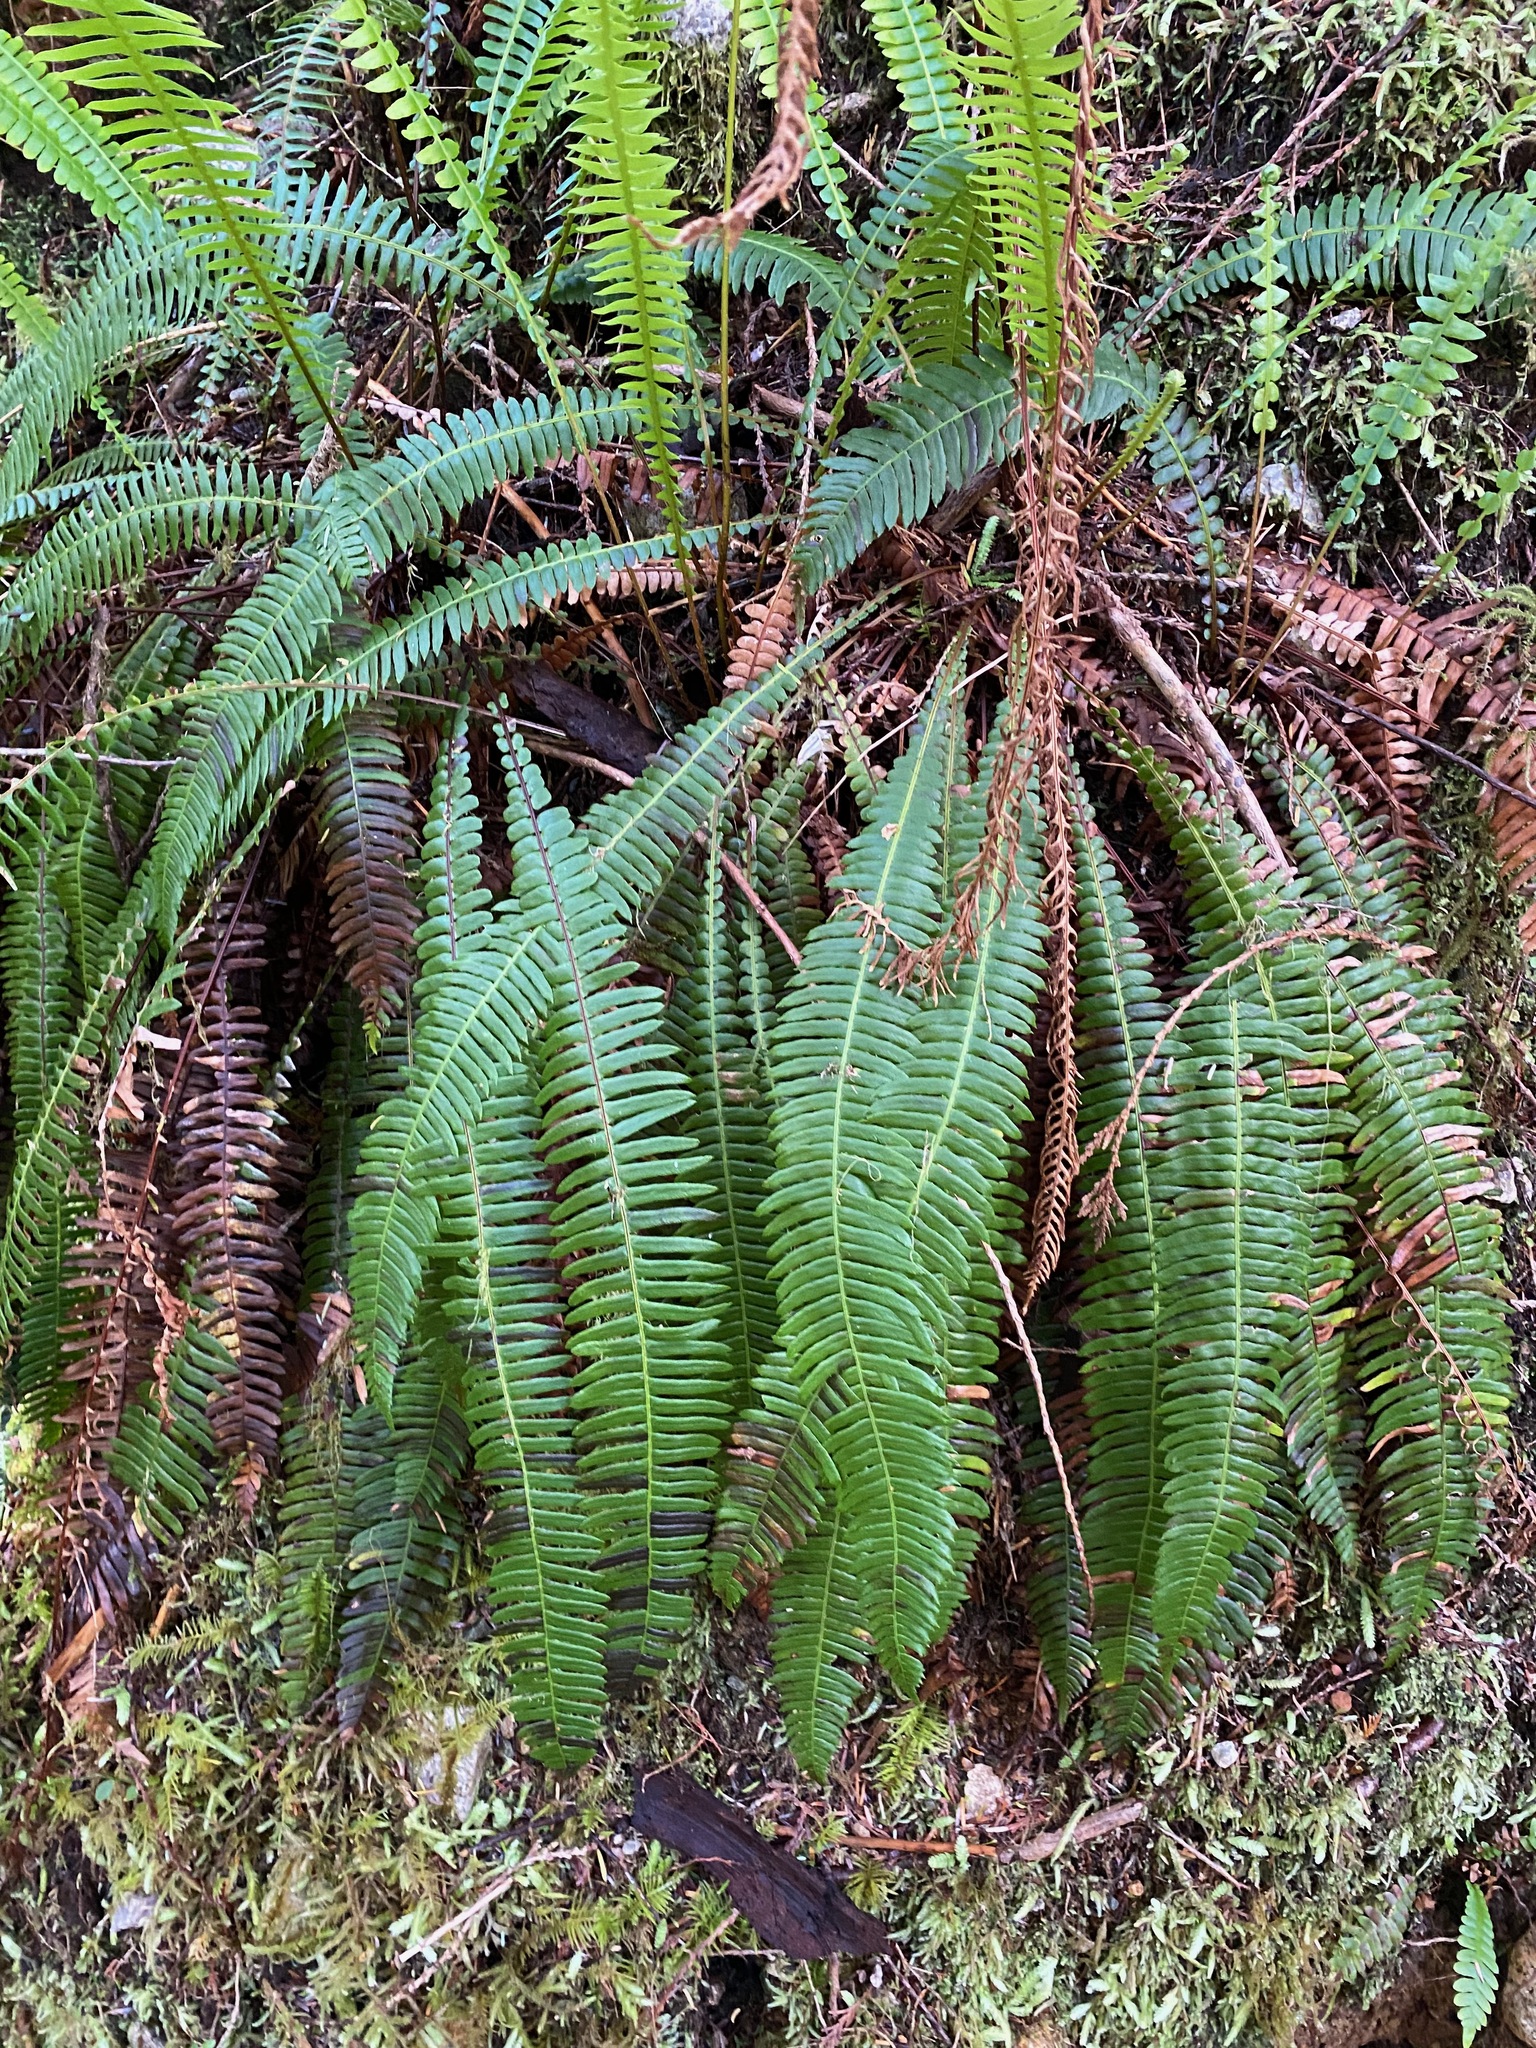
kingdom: Plantae
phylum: Tracheophyta
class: Polypodiopsida
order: Polypodiales
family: Blechnaceae
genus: Struthiopteris
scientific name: Struthiopteris spicant
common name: Deer fern
